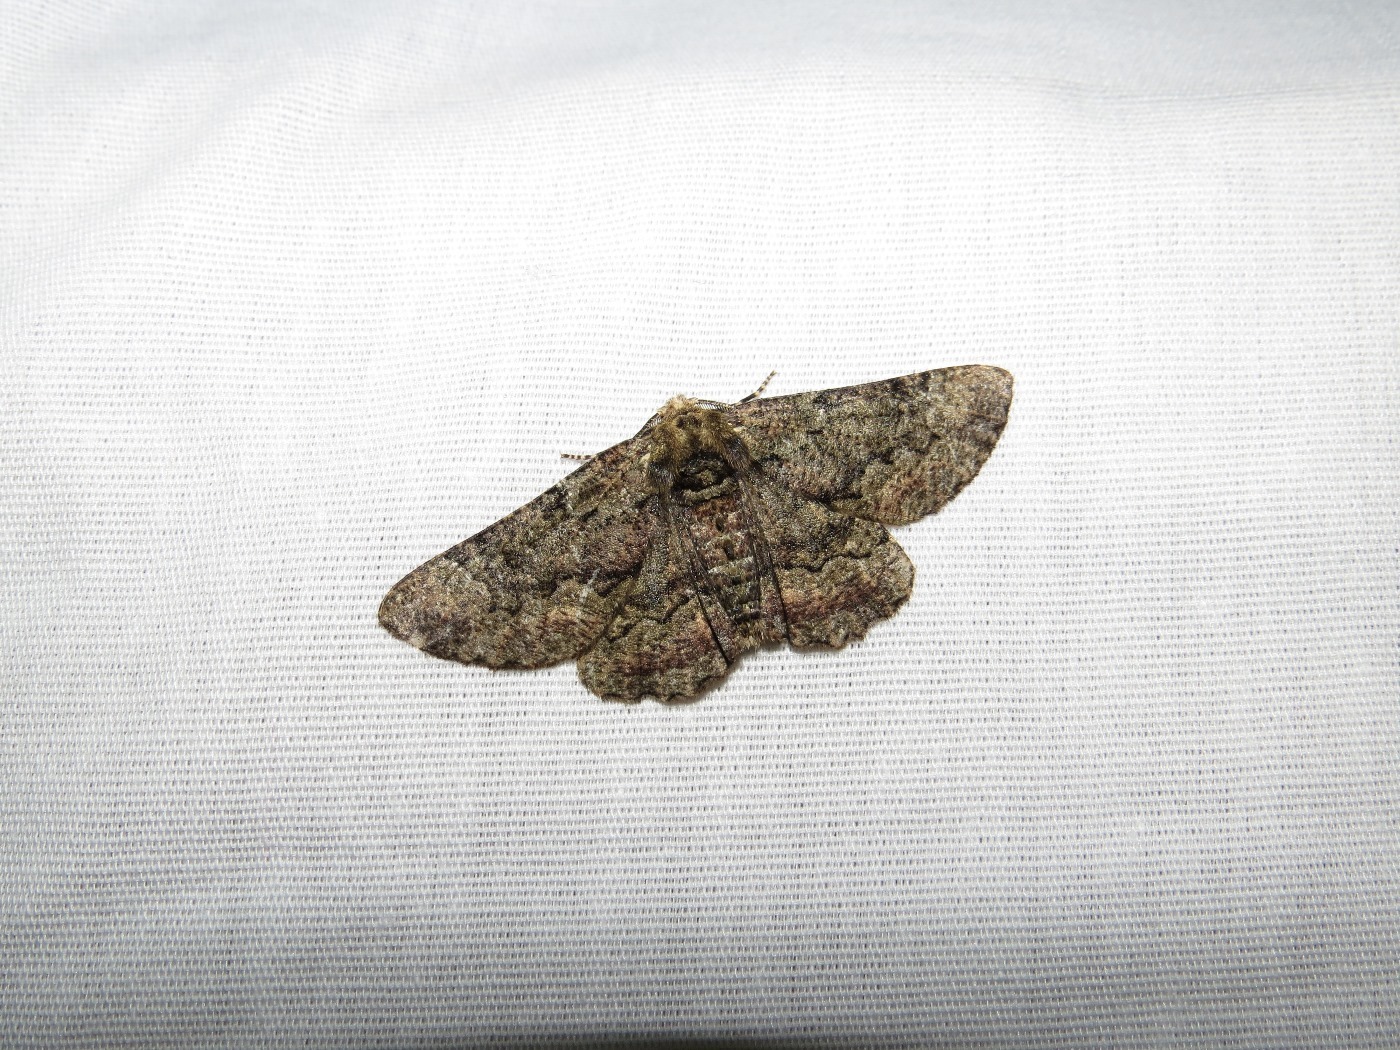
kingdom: Animalia
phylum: Arthropoda
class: Insecta
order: Lepidoptera
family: Geometridae
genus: Phaeoura
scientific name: Phaeoura quernaria
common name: Oak beauty
